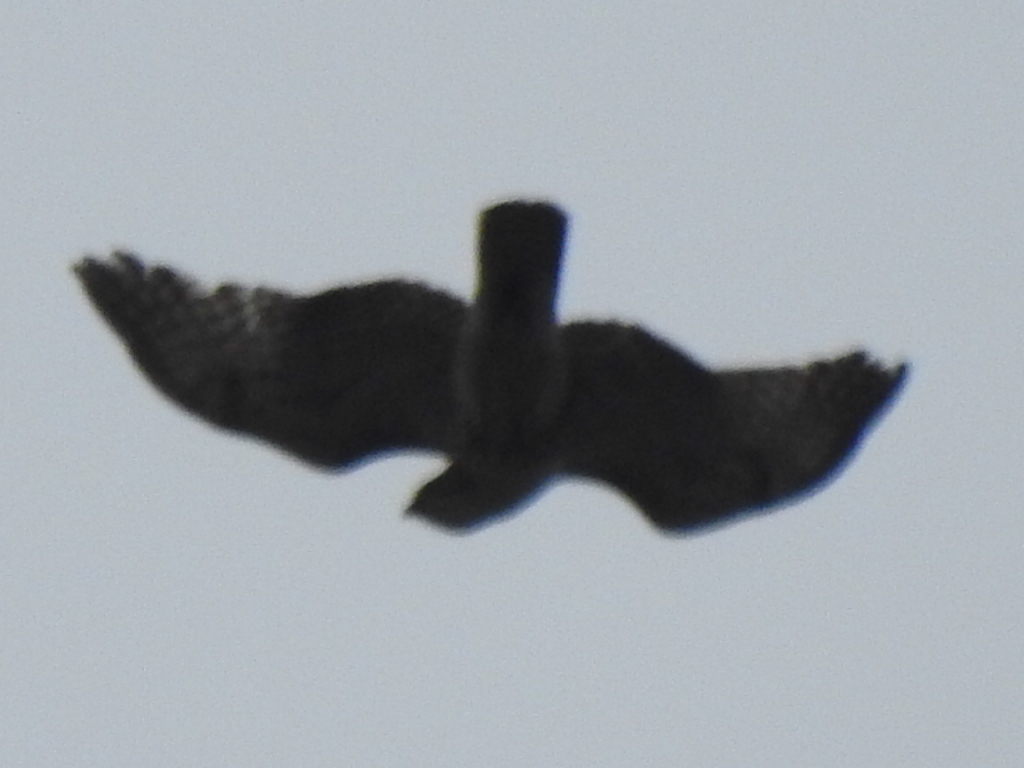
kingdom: Animalia
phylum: Chordata
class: Aves
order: Accipitriformes
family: Accipitridae
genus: Buteo
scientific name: Buteo jamaicensis
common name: Red-tailed hawk
